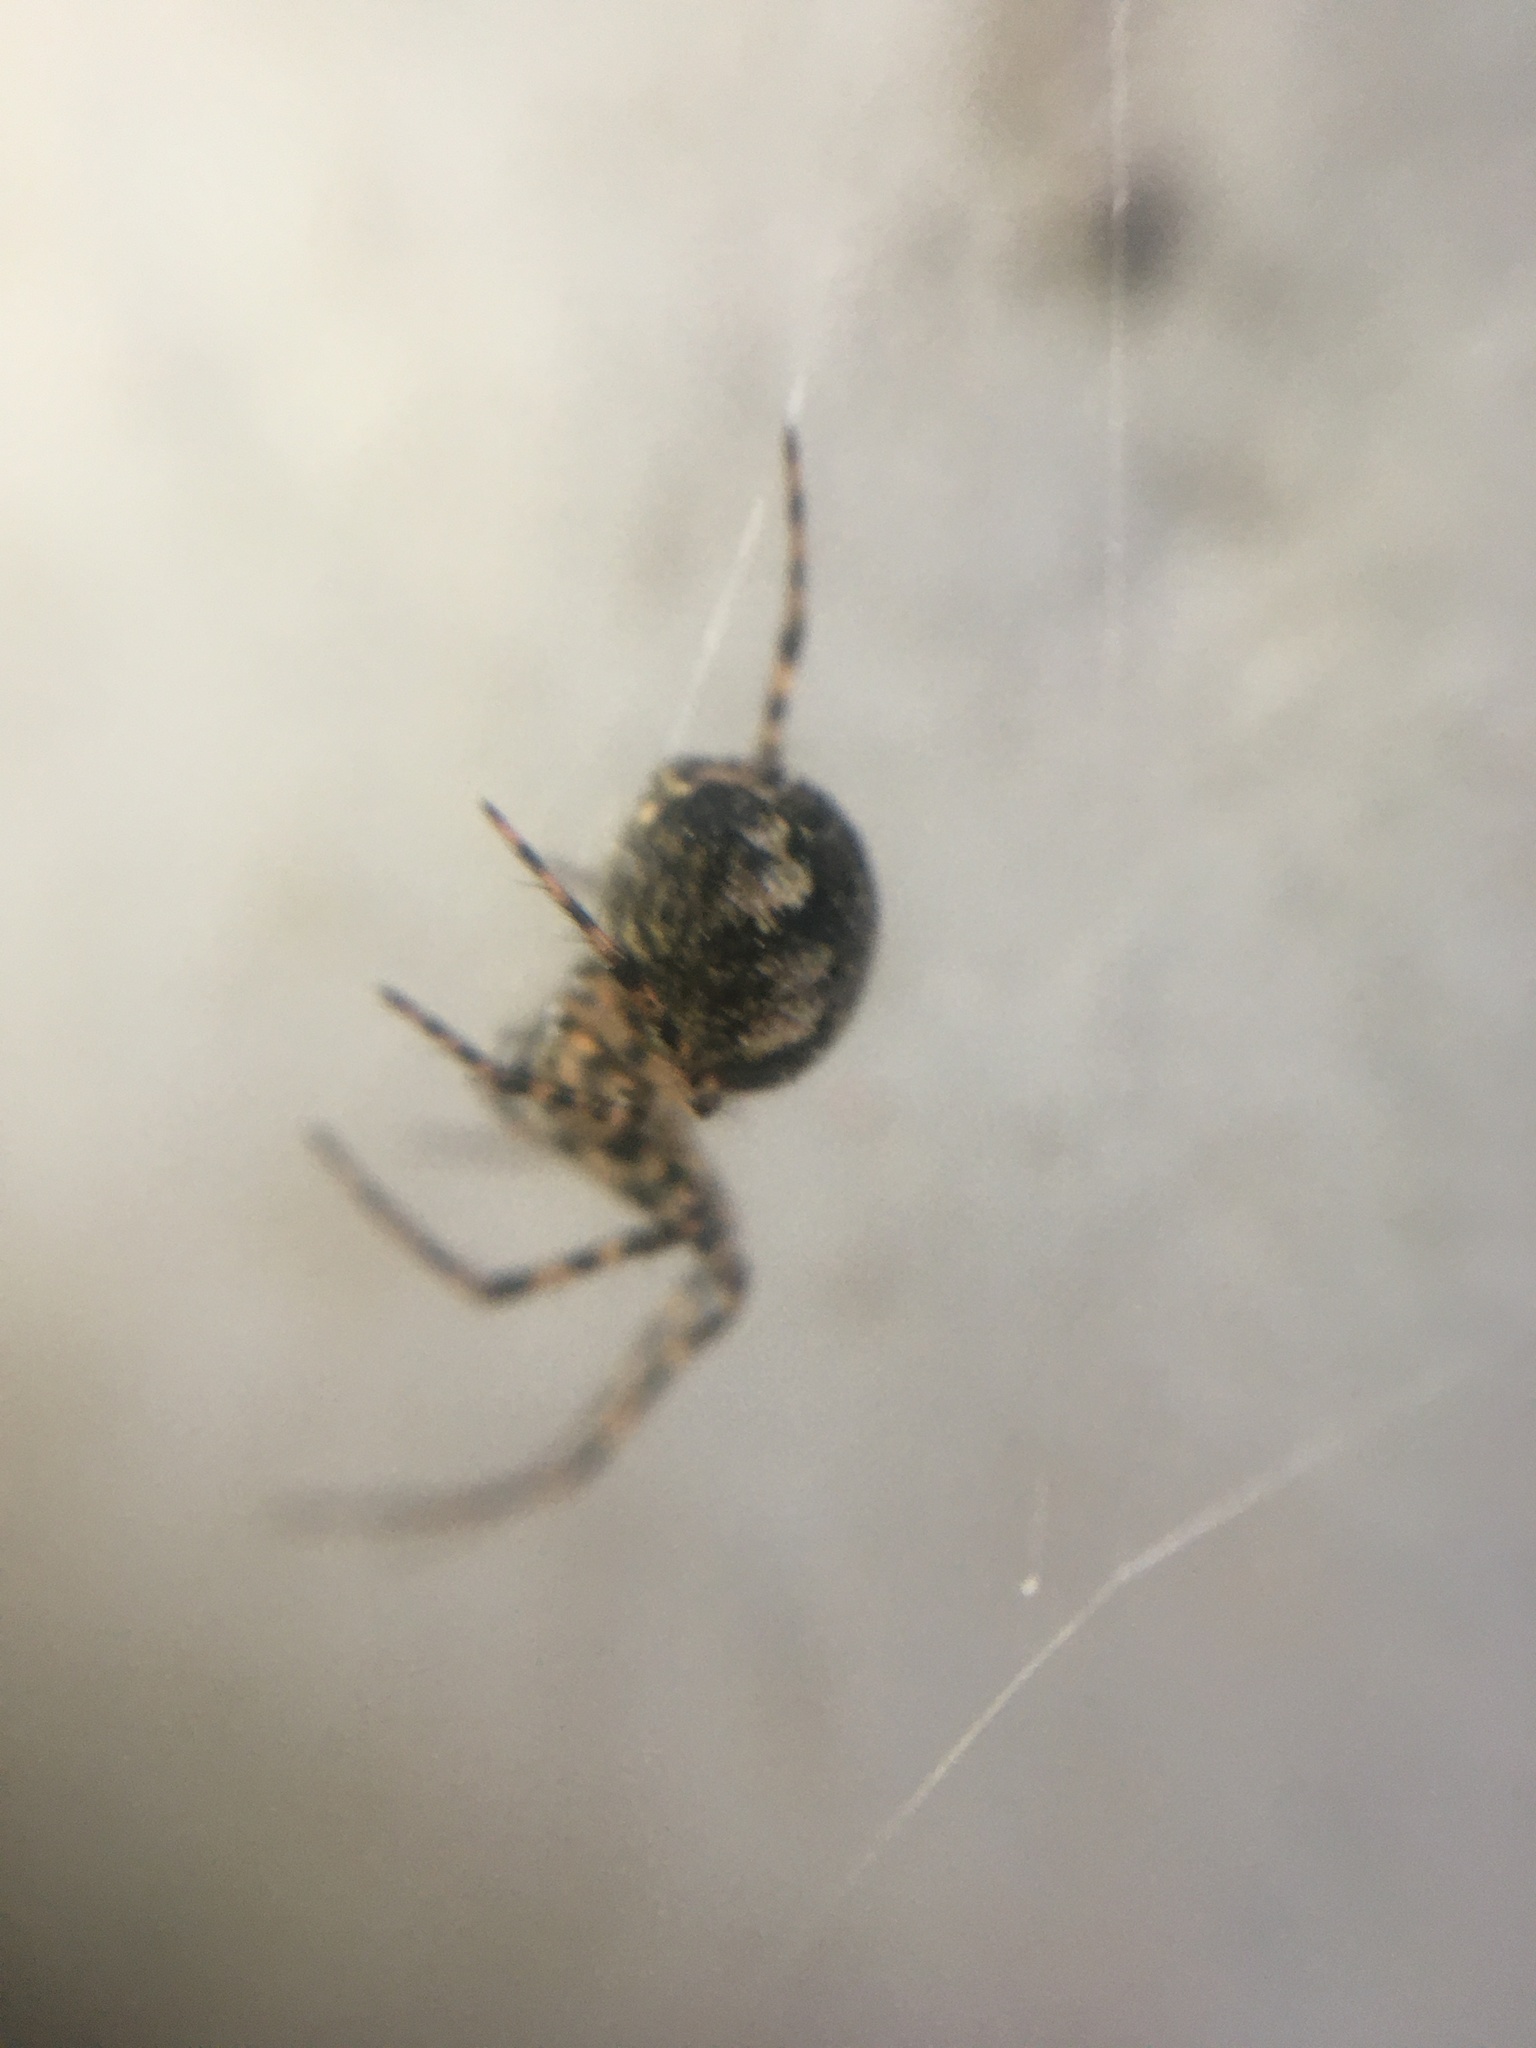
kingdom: Animalia
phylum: Arthropoda
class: Arachnida
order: Araneae
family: Tetragnathidae
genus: Metellina
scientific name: Metellina merianae
